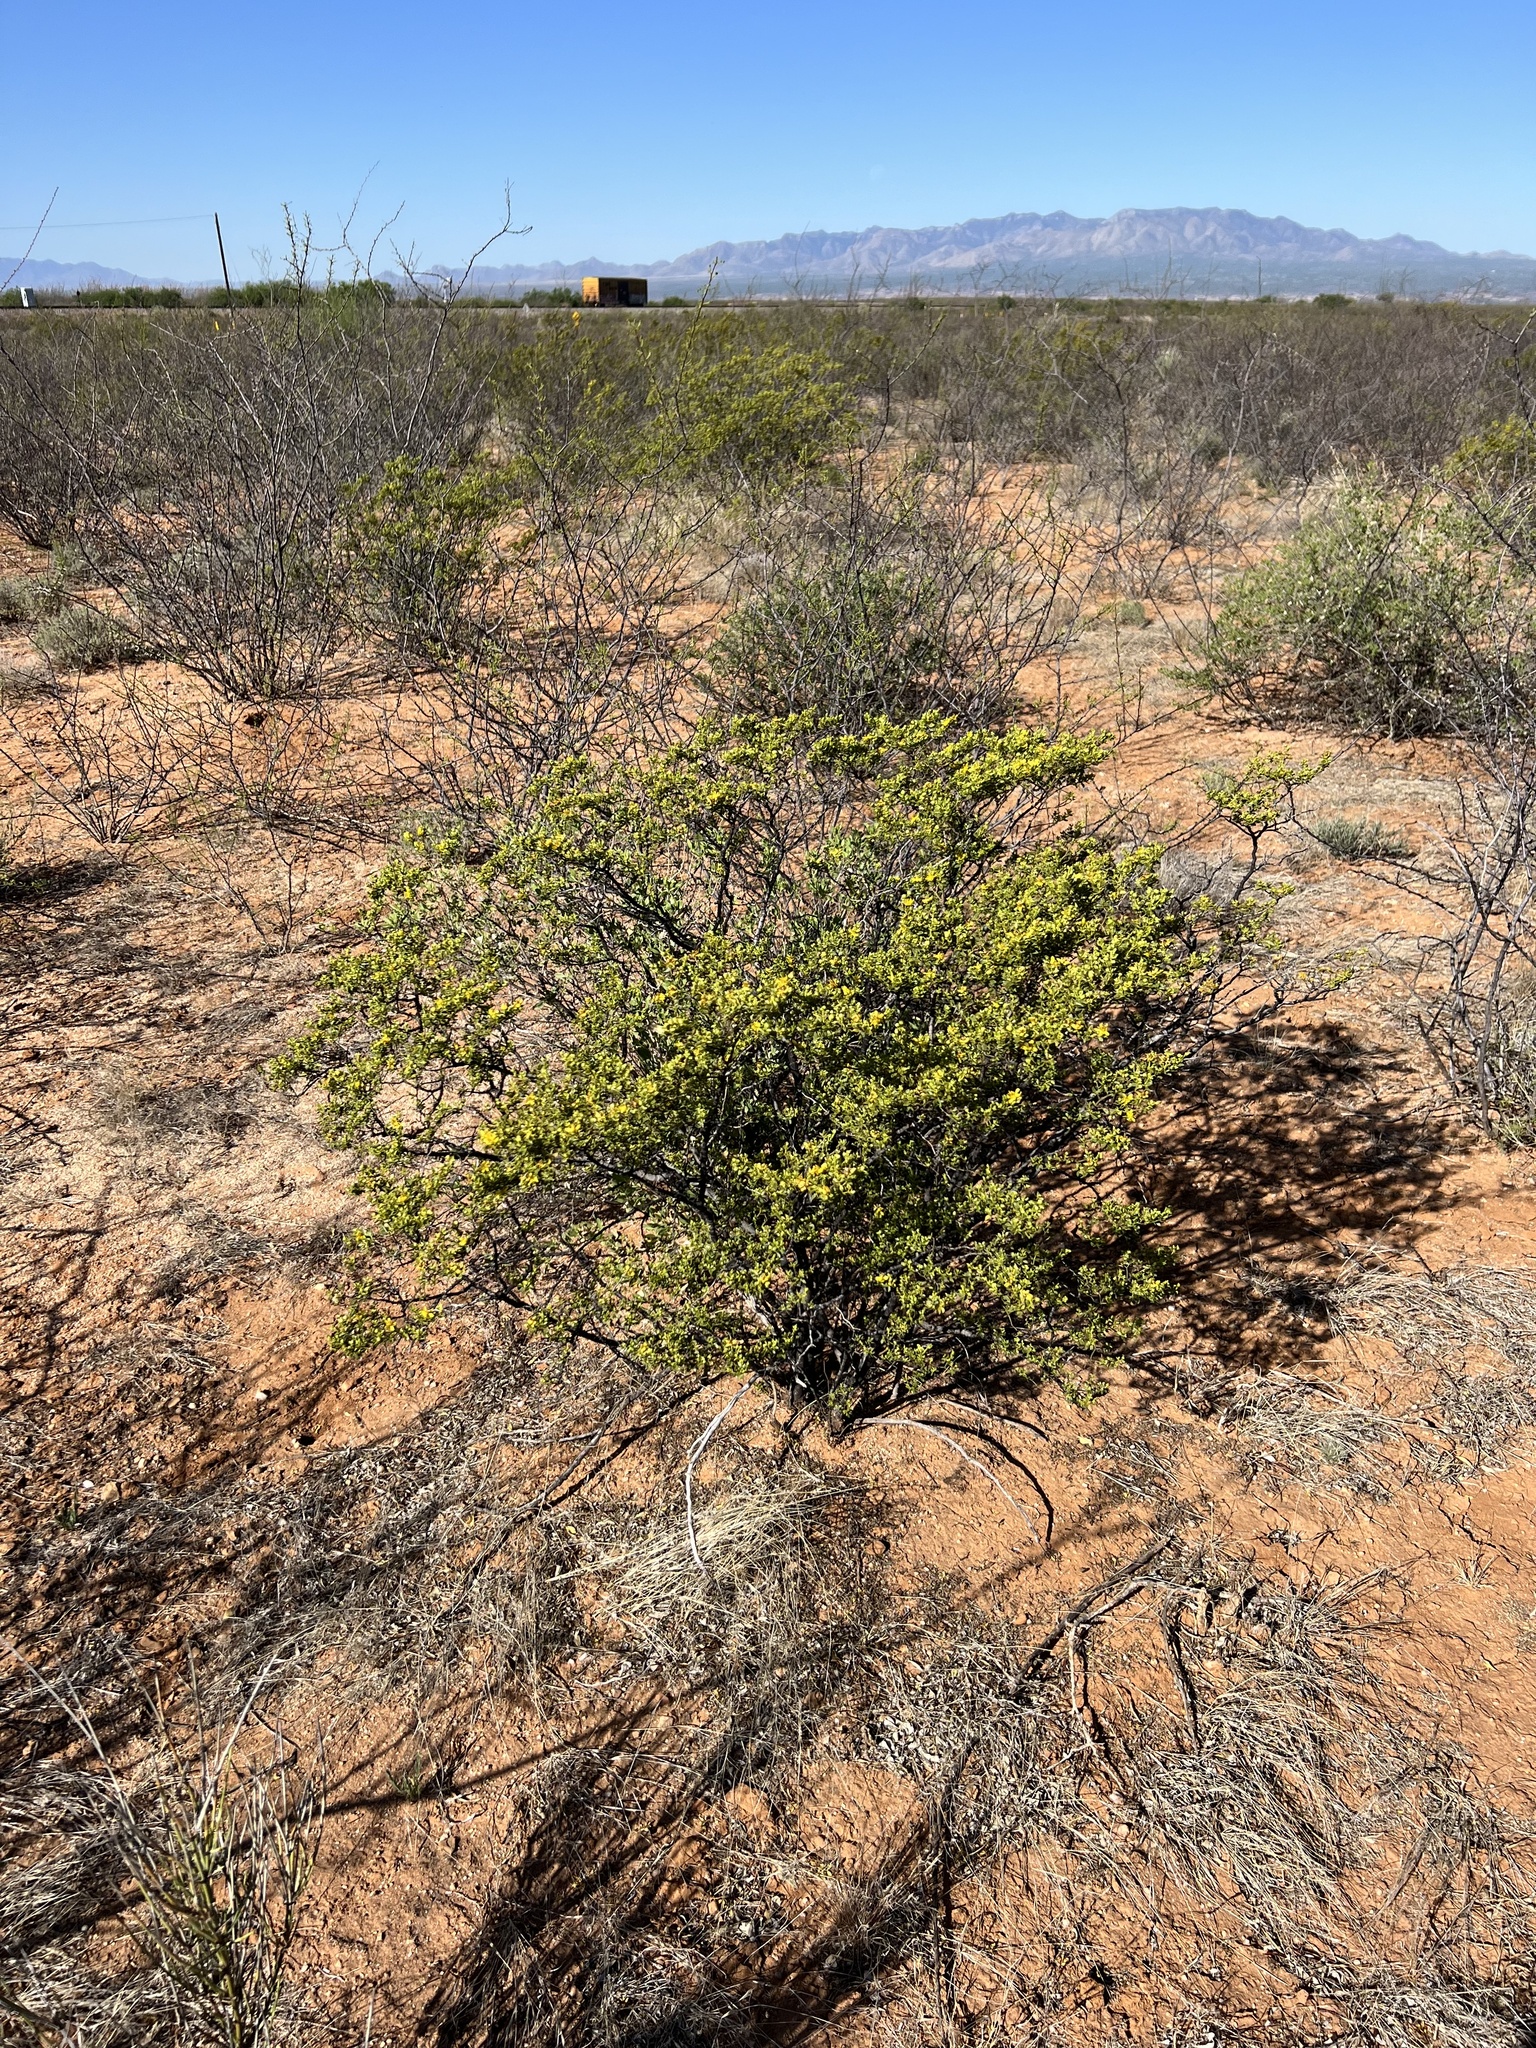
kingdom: Plantae
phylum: Tracheophyta
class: Magnoliopsida
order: Zygophyllales
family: Zygophyllaceae
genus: Larrea
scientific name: Larrea tridentata
